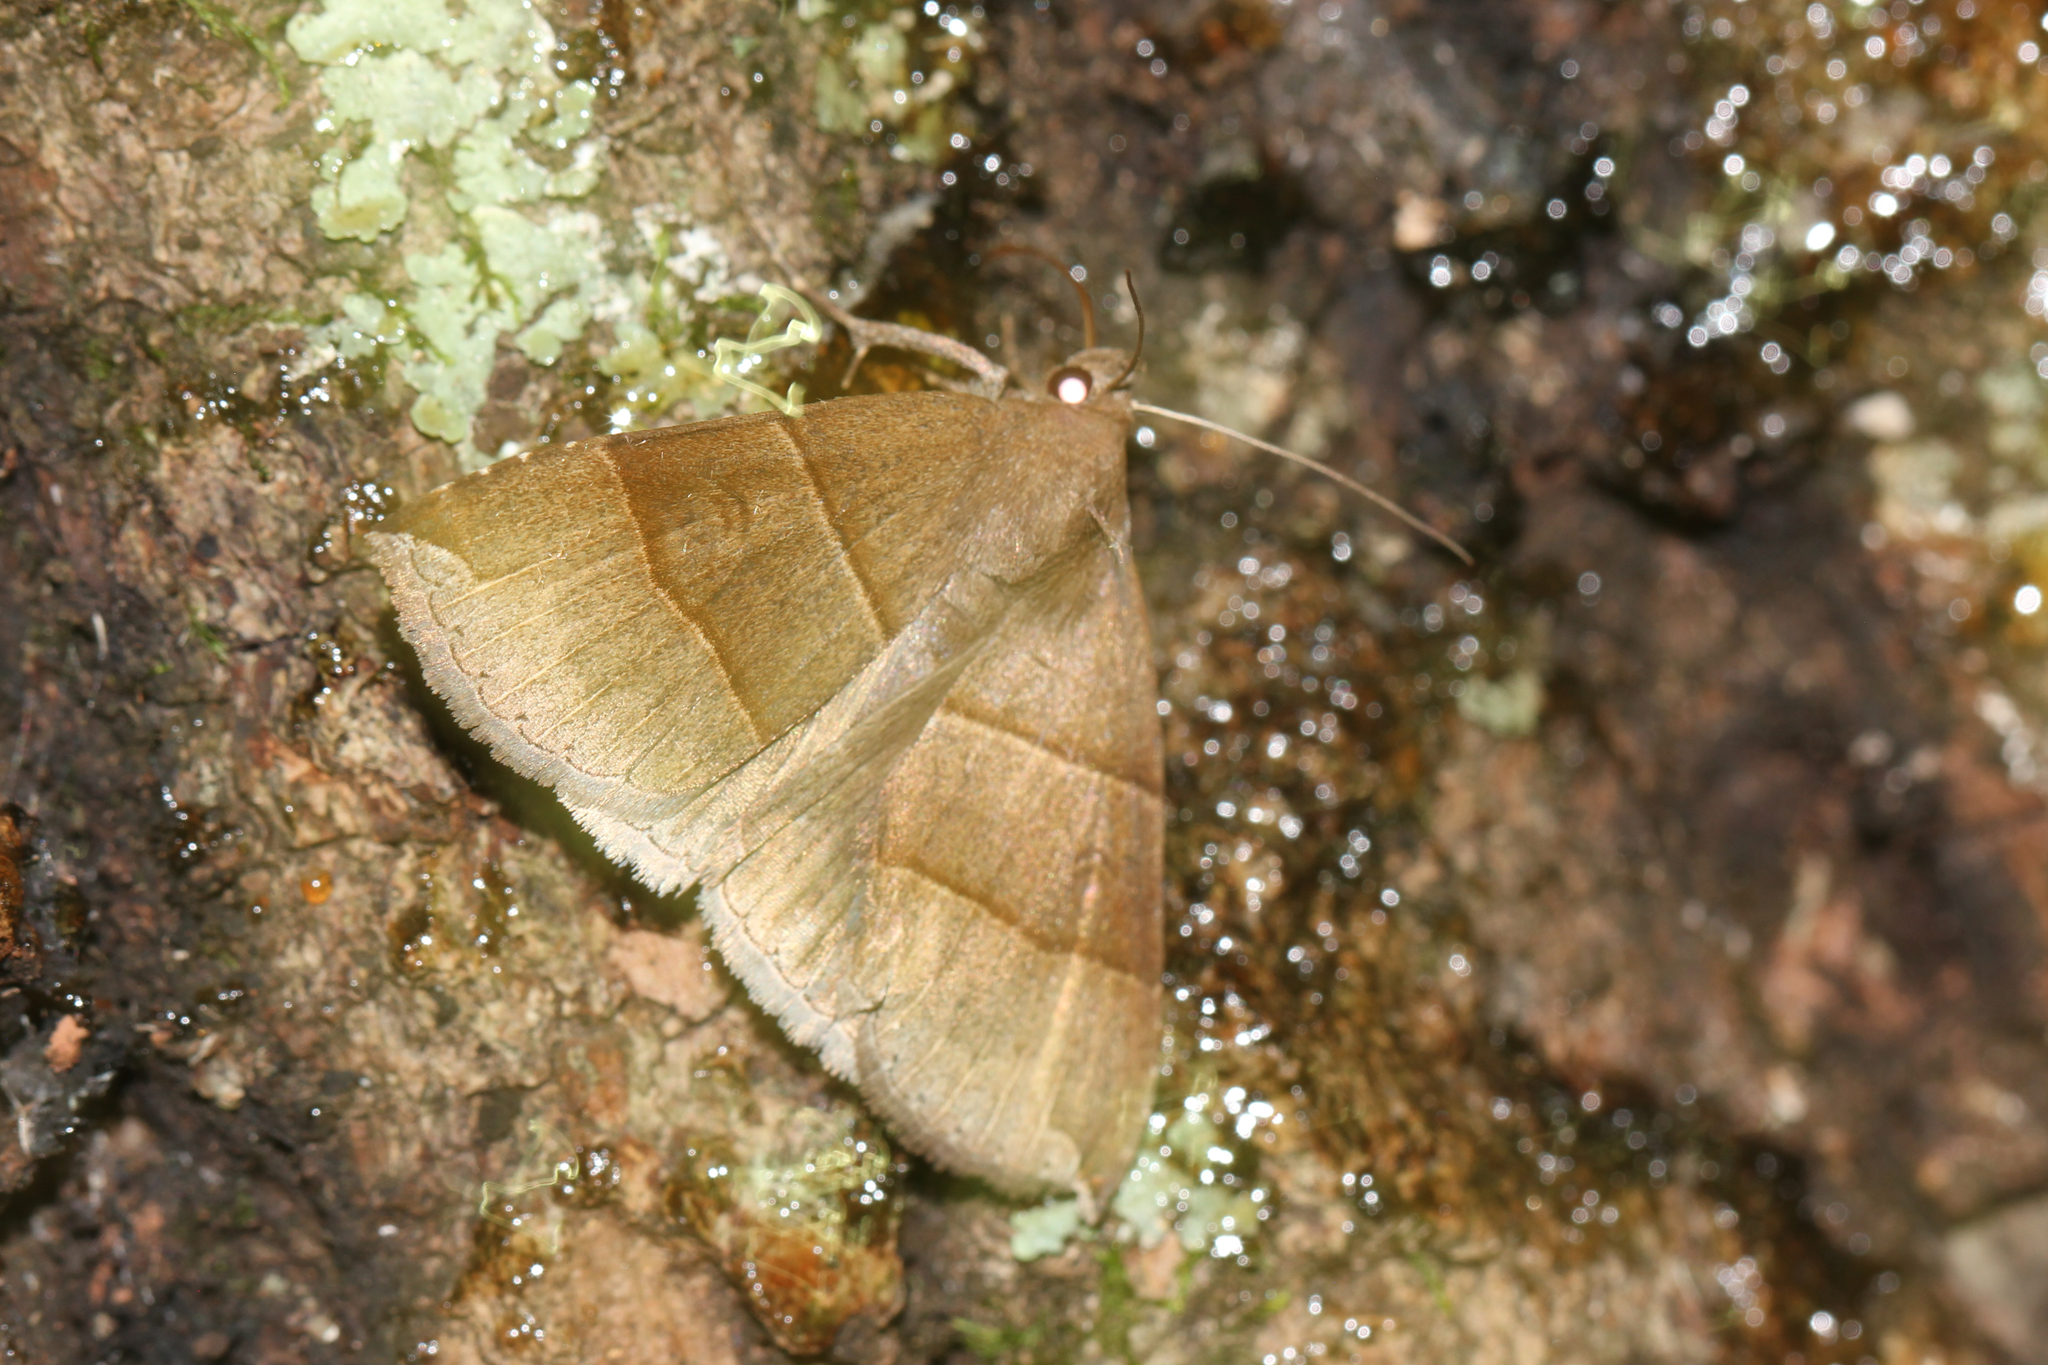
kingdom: Animalia
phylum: Arthropoda
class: Insecta
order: Lepidoptera
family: Erebidae
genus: Parallelia
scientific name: Parallelia bistriaris
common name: Maple looper moth
